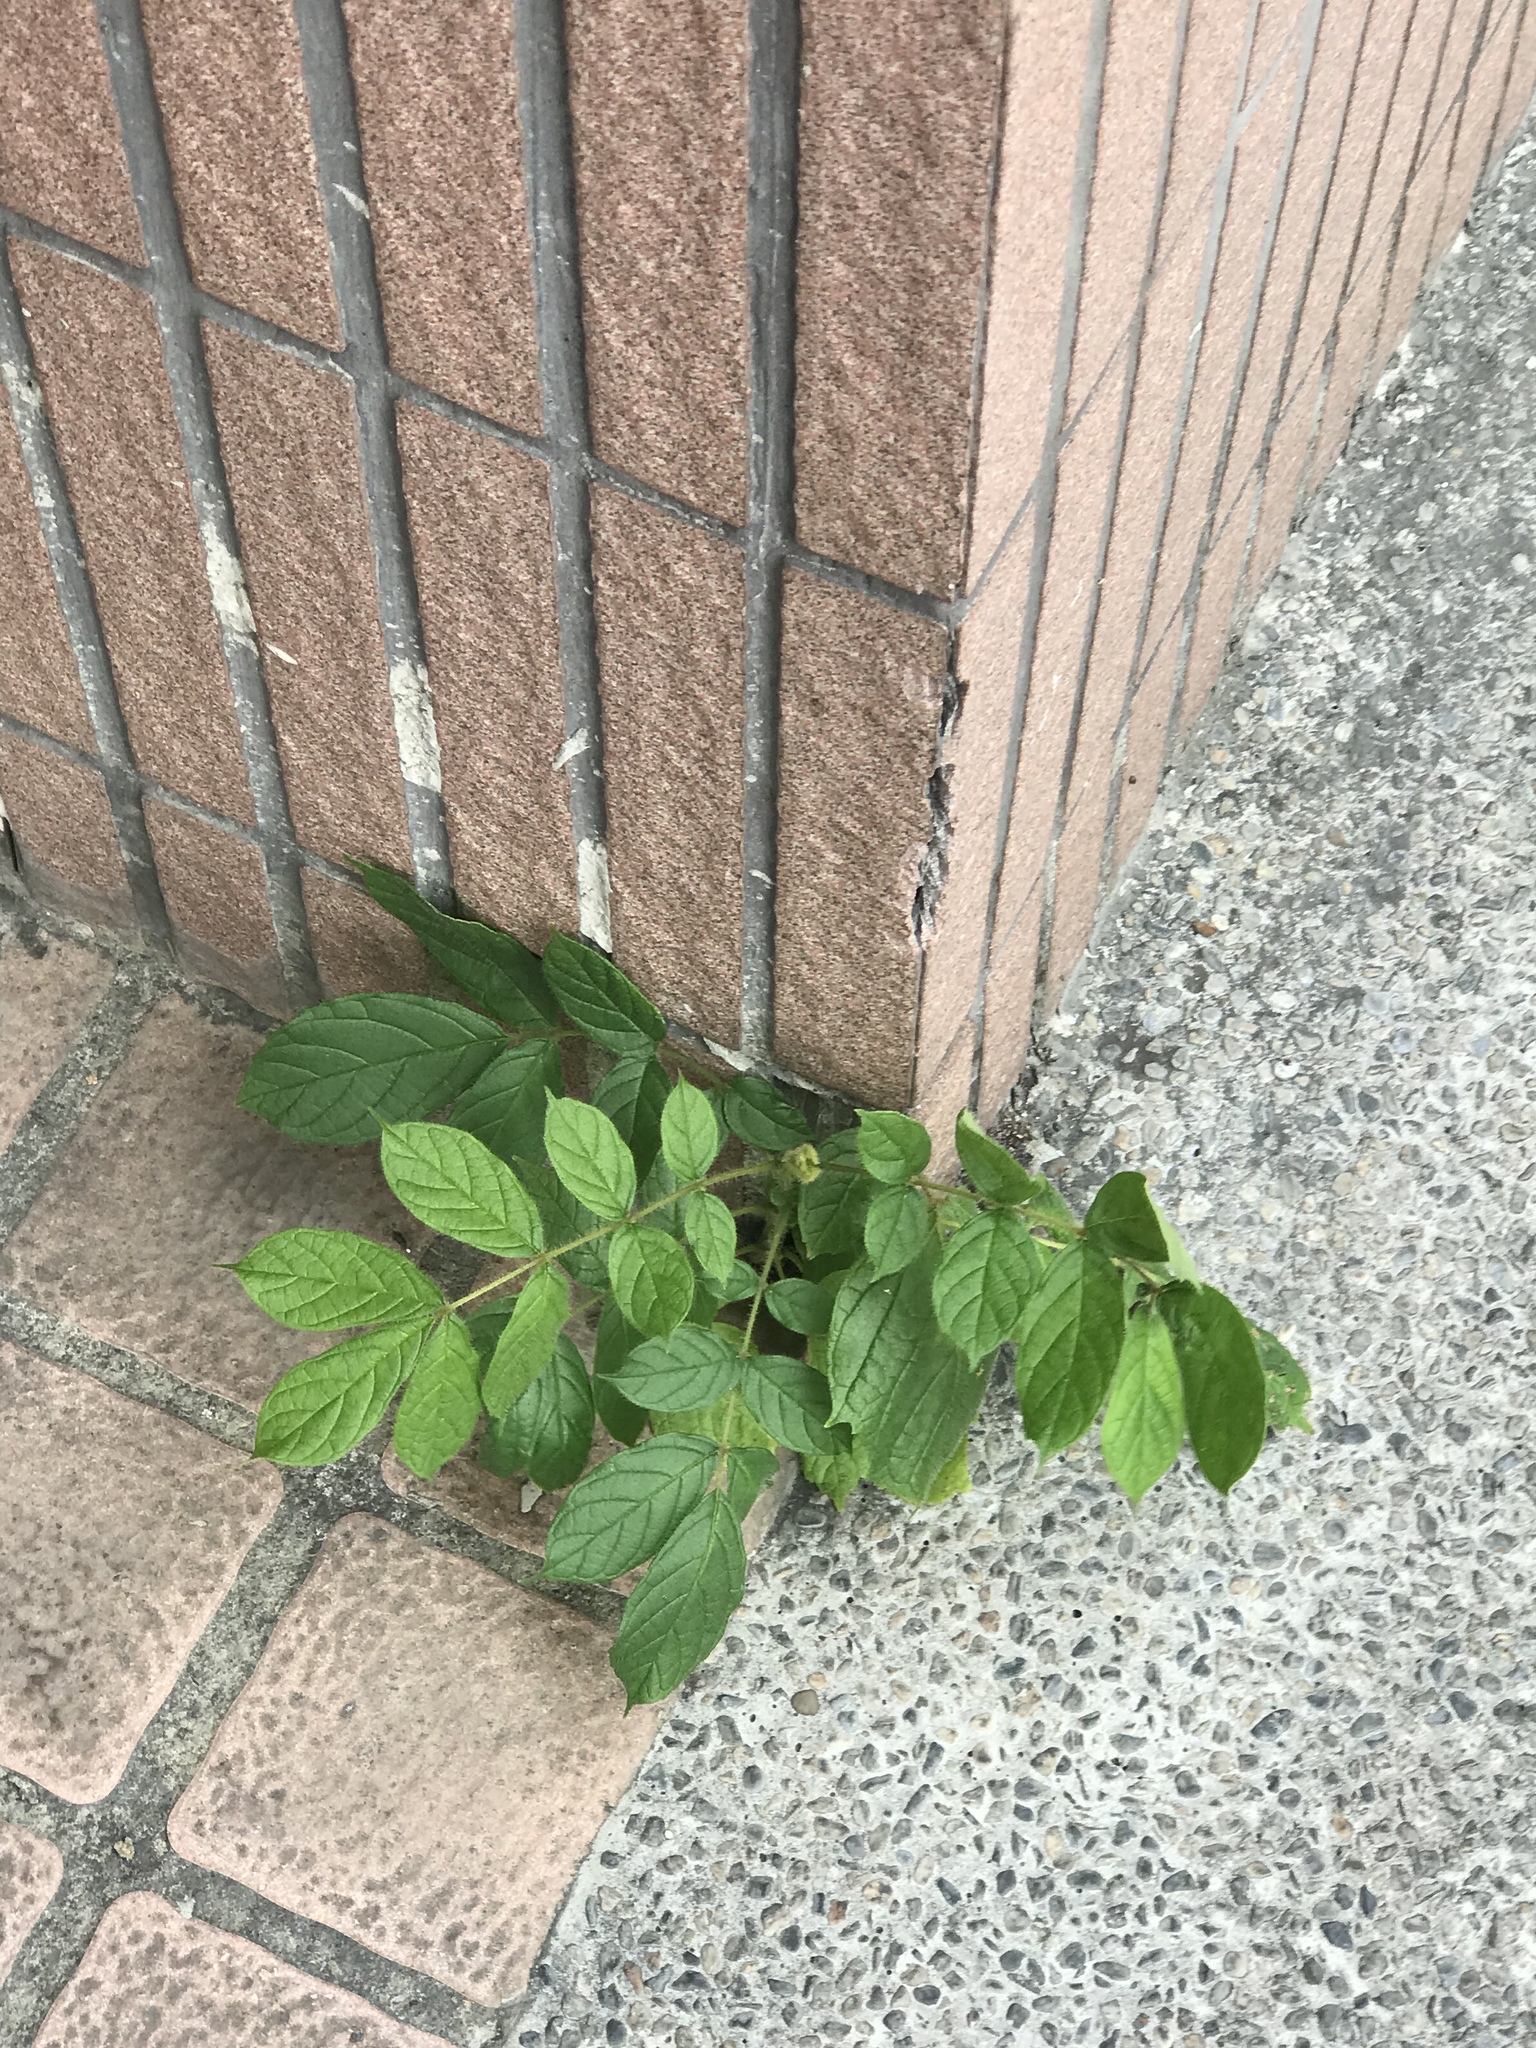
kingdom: Plantae
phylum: Tracheophyta
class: Magnoliopsida
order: Lamiales
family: Bignoniaceae
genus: Spathodea
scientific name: Spathodea campanulata
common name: African tuliptree
